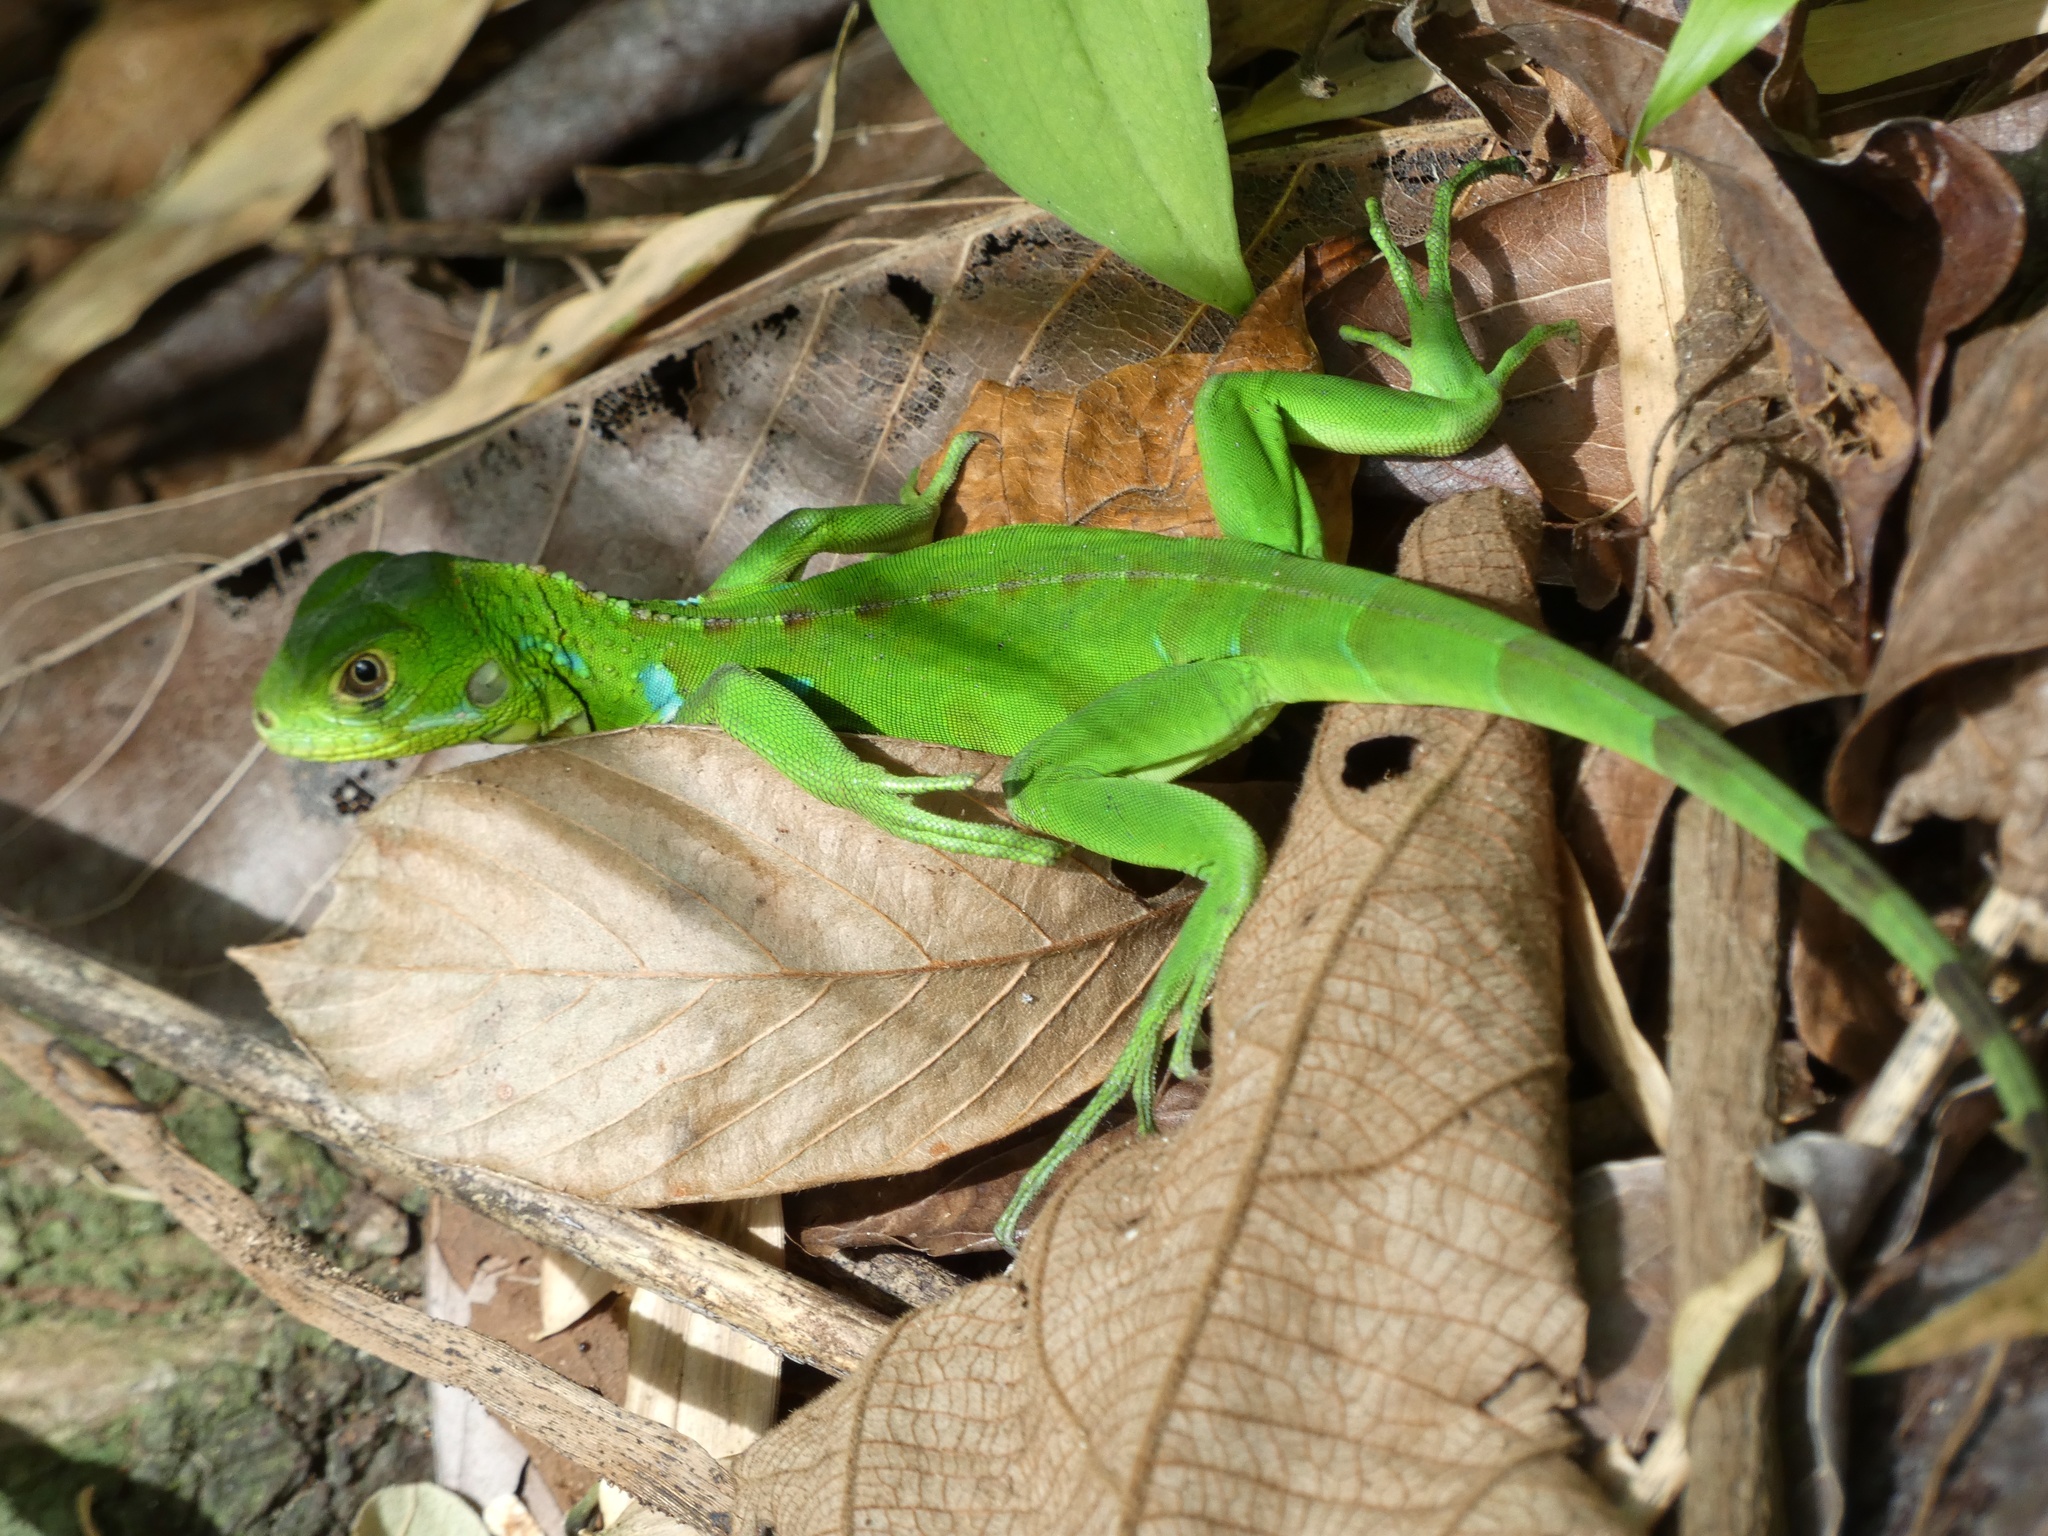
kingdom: Animalia
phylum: Chordata
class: Squamata
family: Iguanidae
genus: Iguana
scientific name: Iguana iguana
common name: Green iguana
